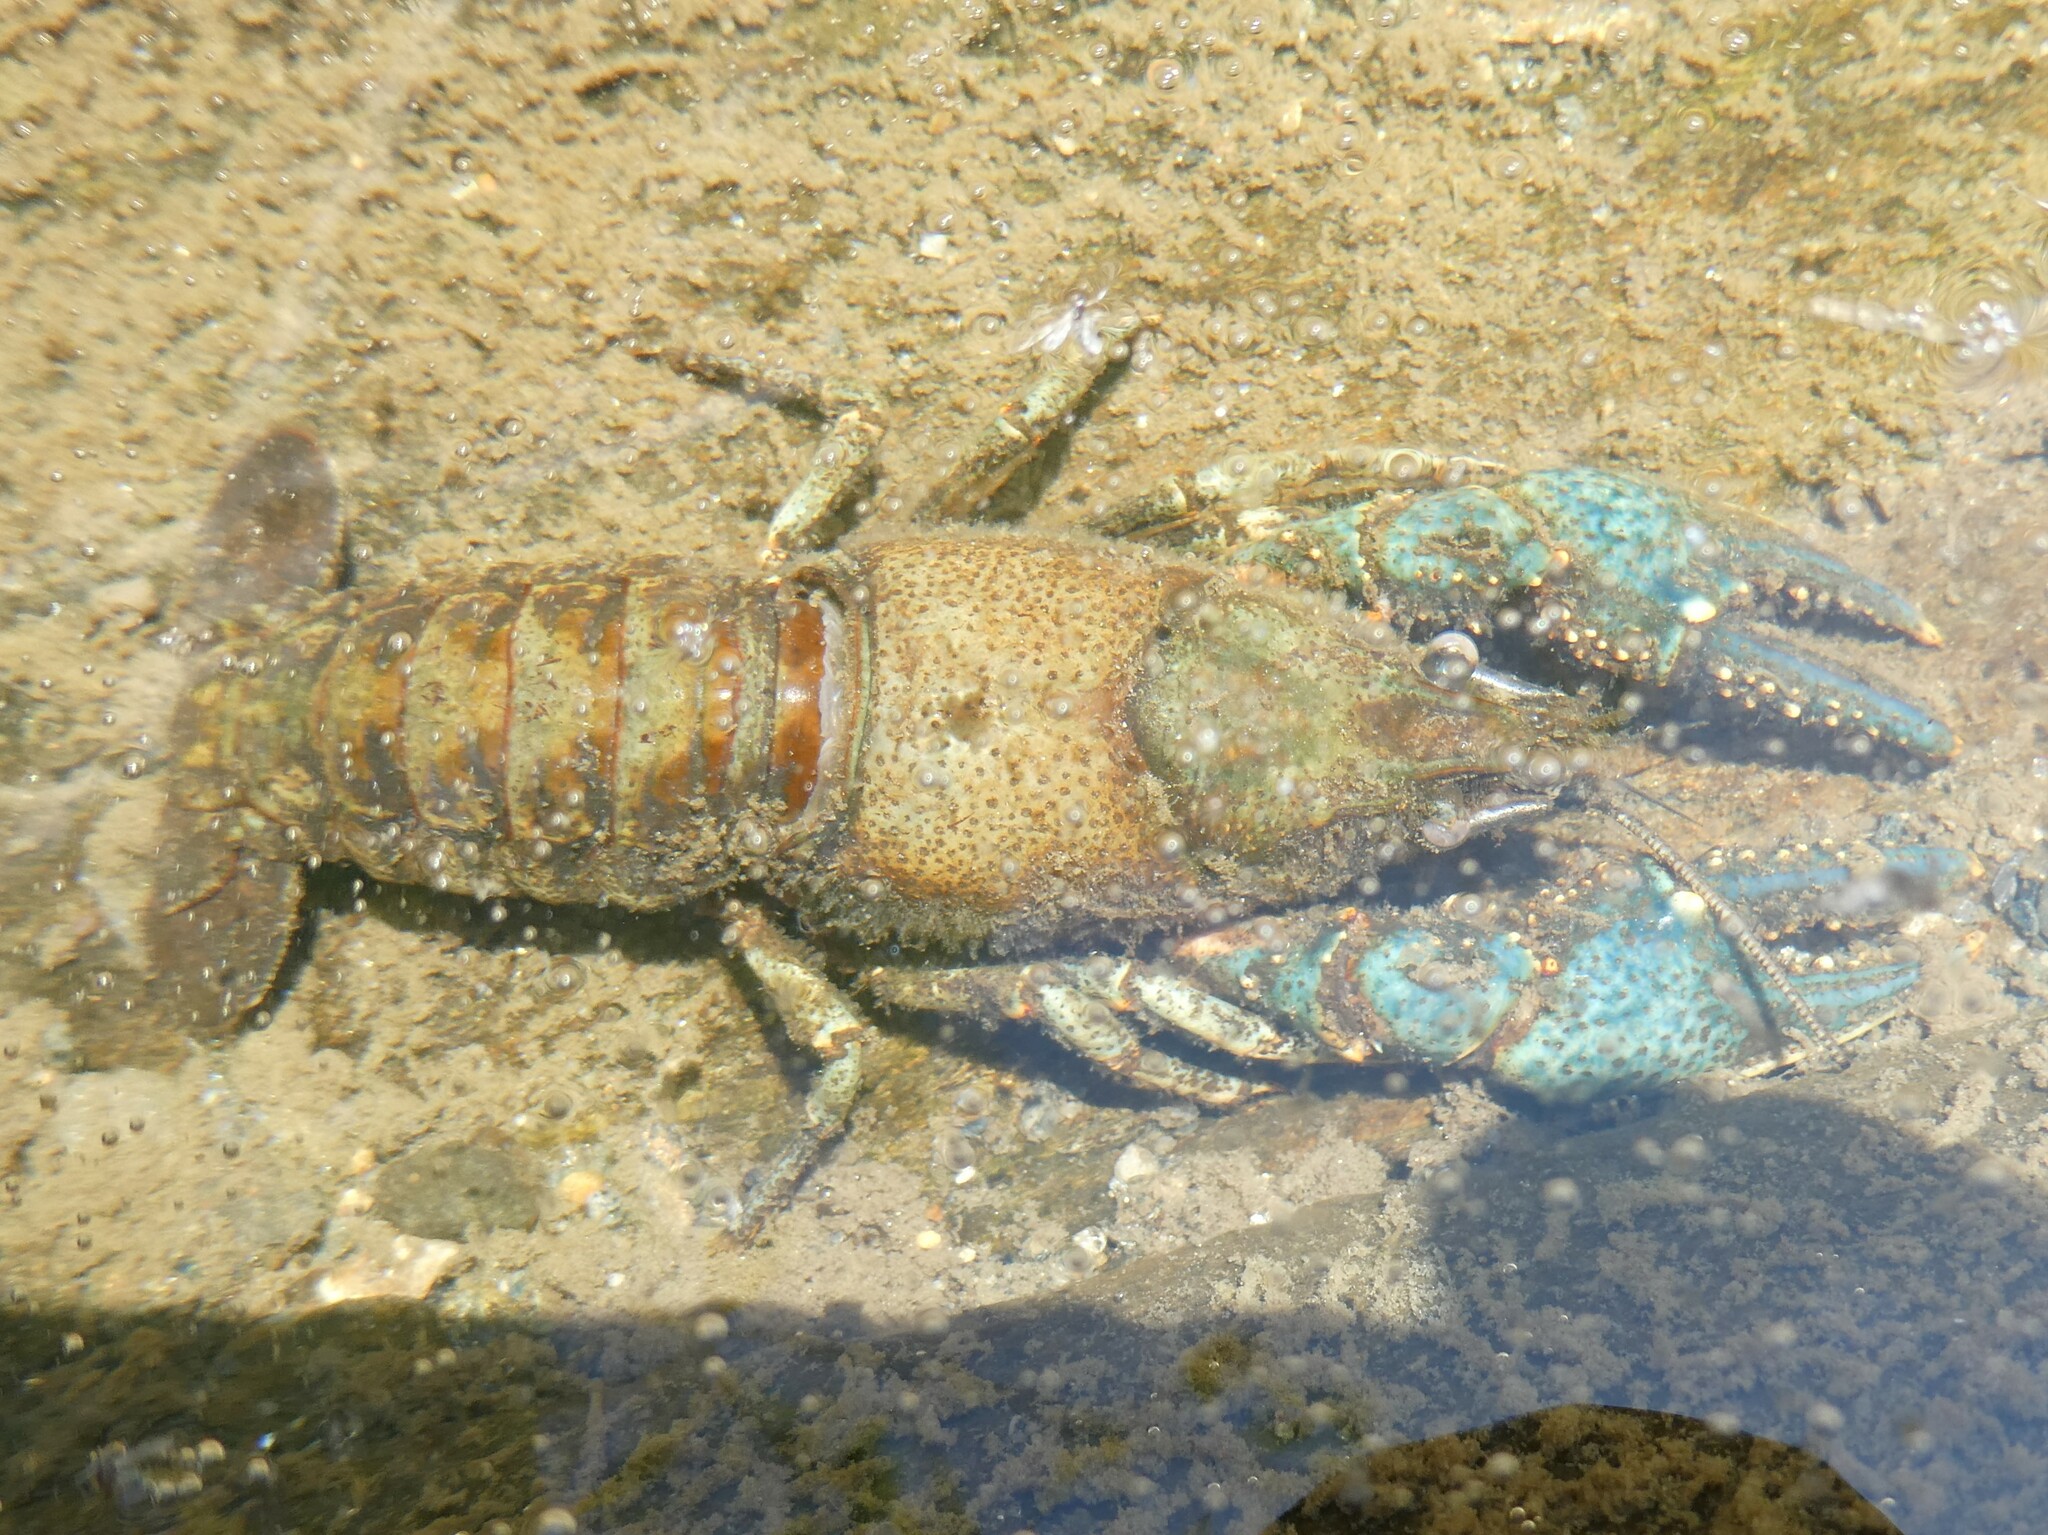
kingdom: Animalia
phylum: Arthropoda
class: Malacostraca
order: Decapoda
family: Cambaridae
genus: Faxonius
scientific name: Faxonius virilis
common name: Virile crayfish
